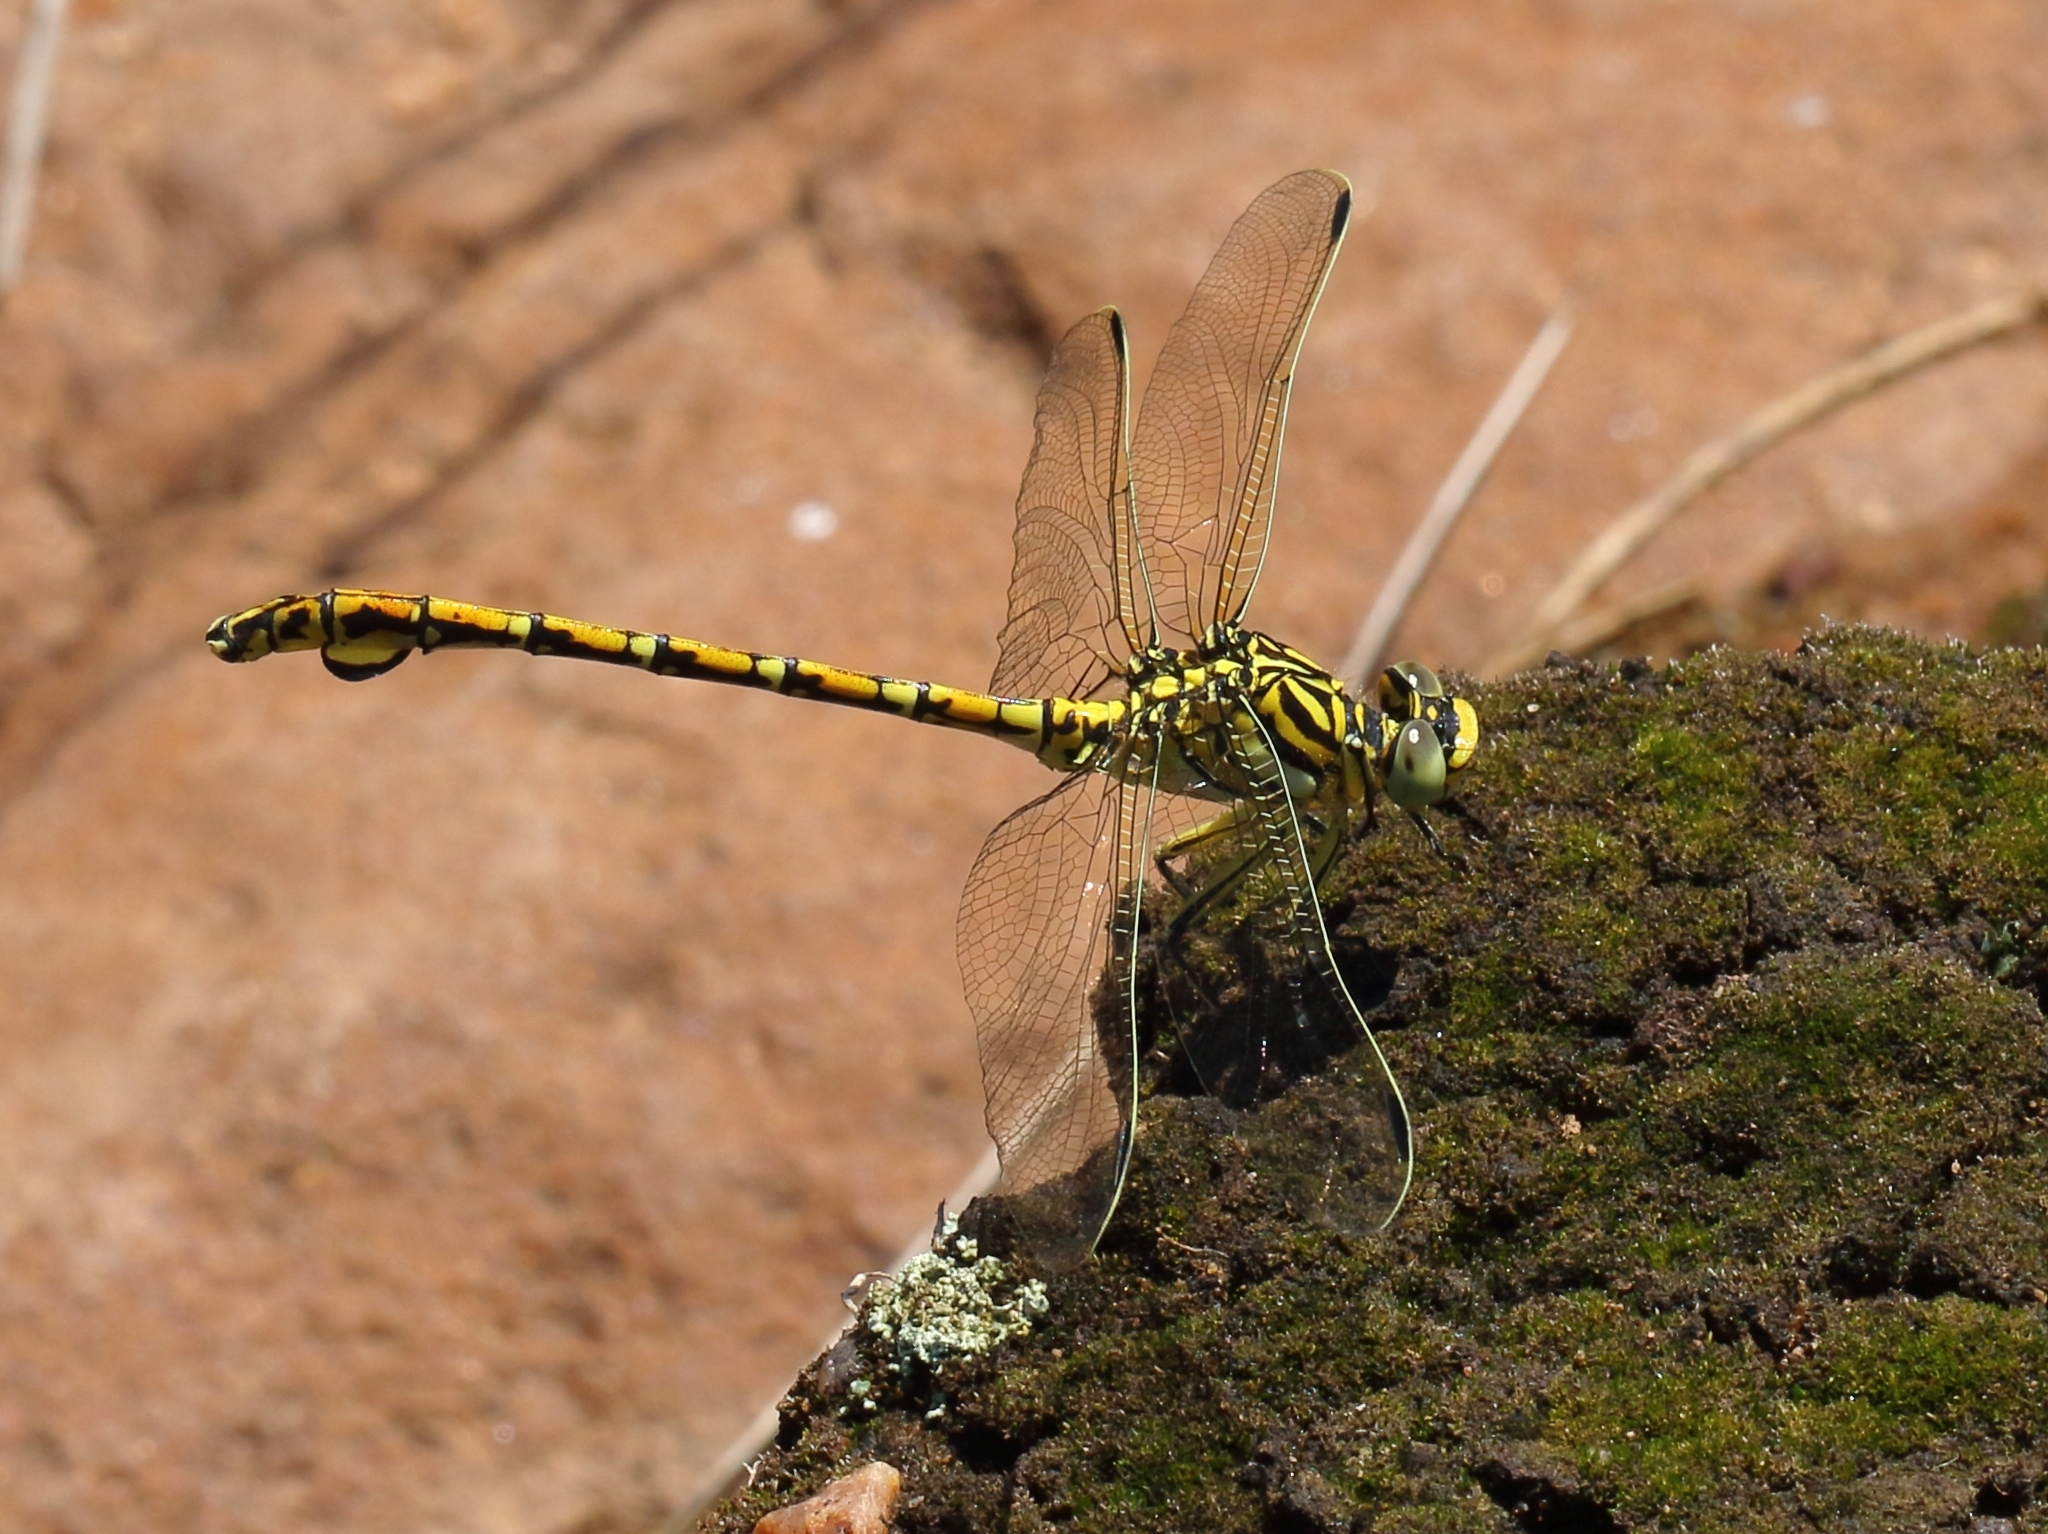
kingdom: Animalia
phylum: Arthropoda
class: Insecta
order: Odonata
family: Gomphidae
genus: Ceratogomphus
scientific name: Ceratogomphus pictus
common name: Common thorntail
